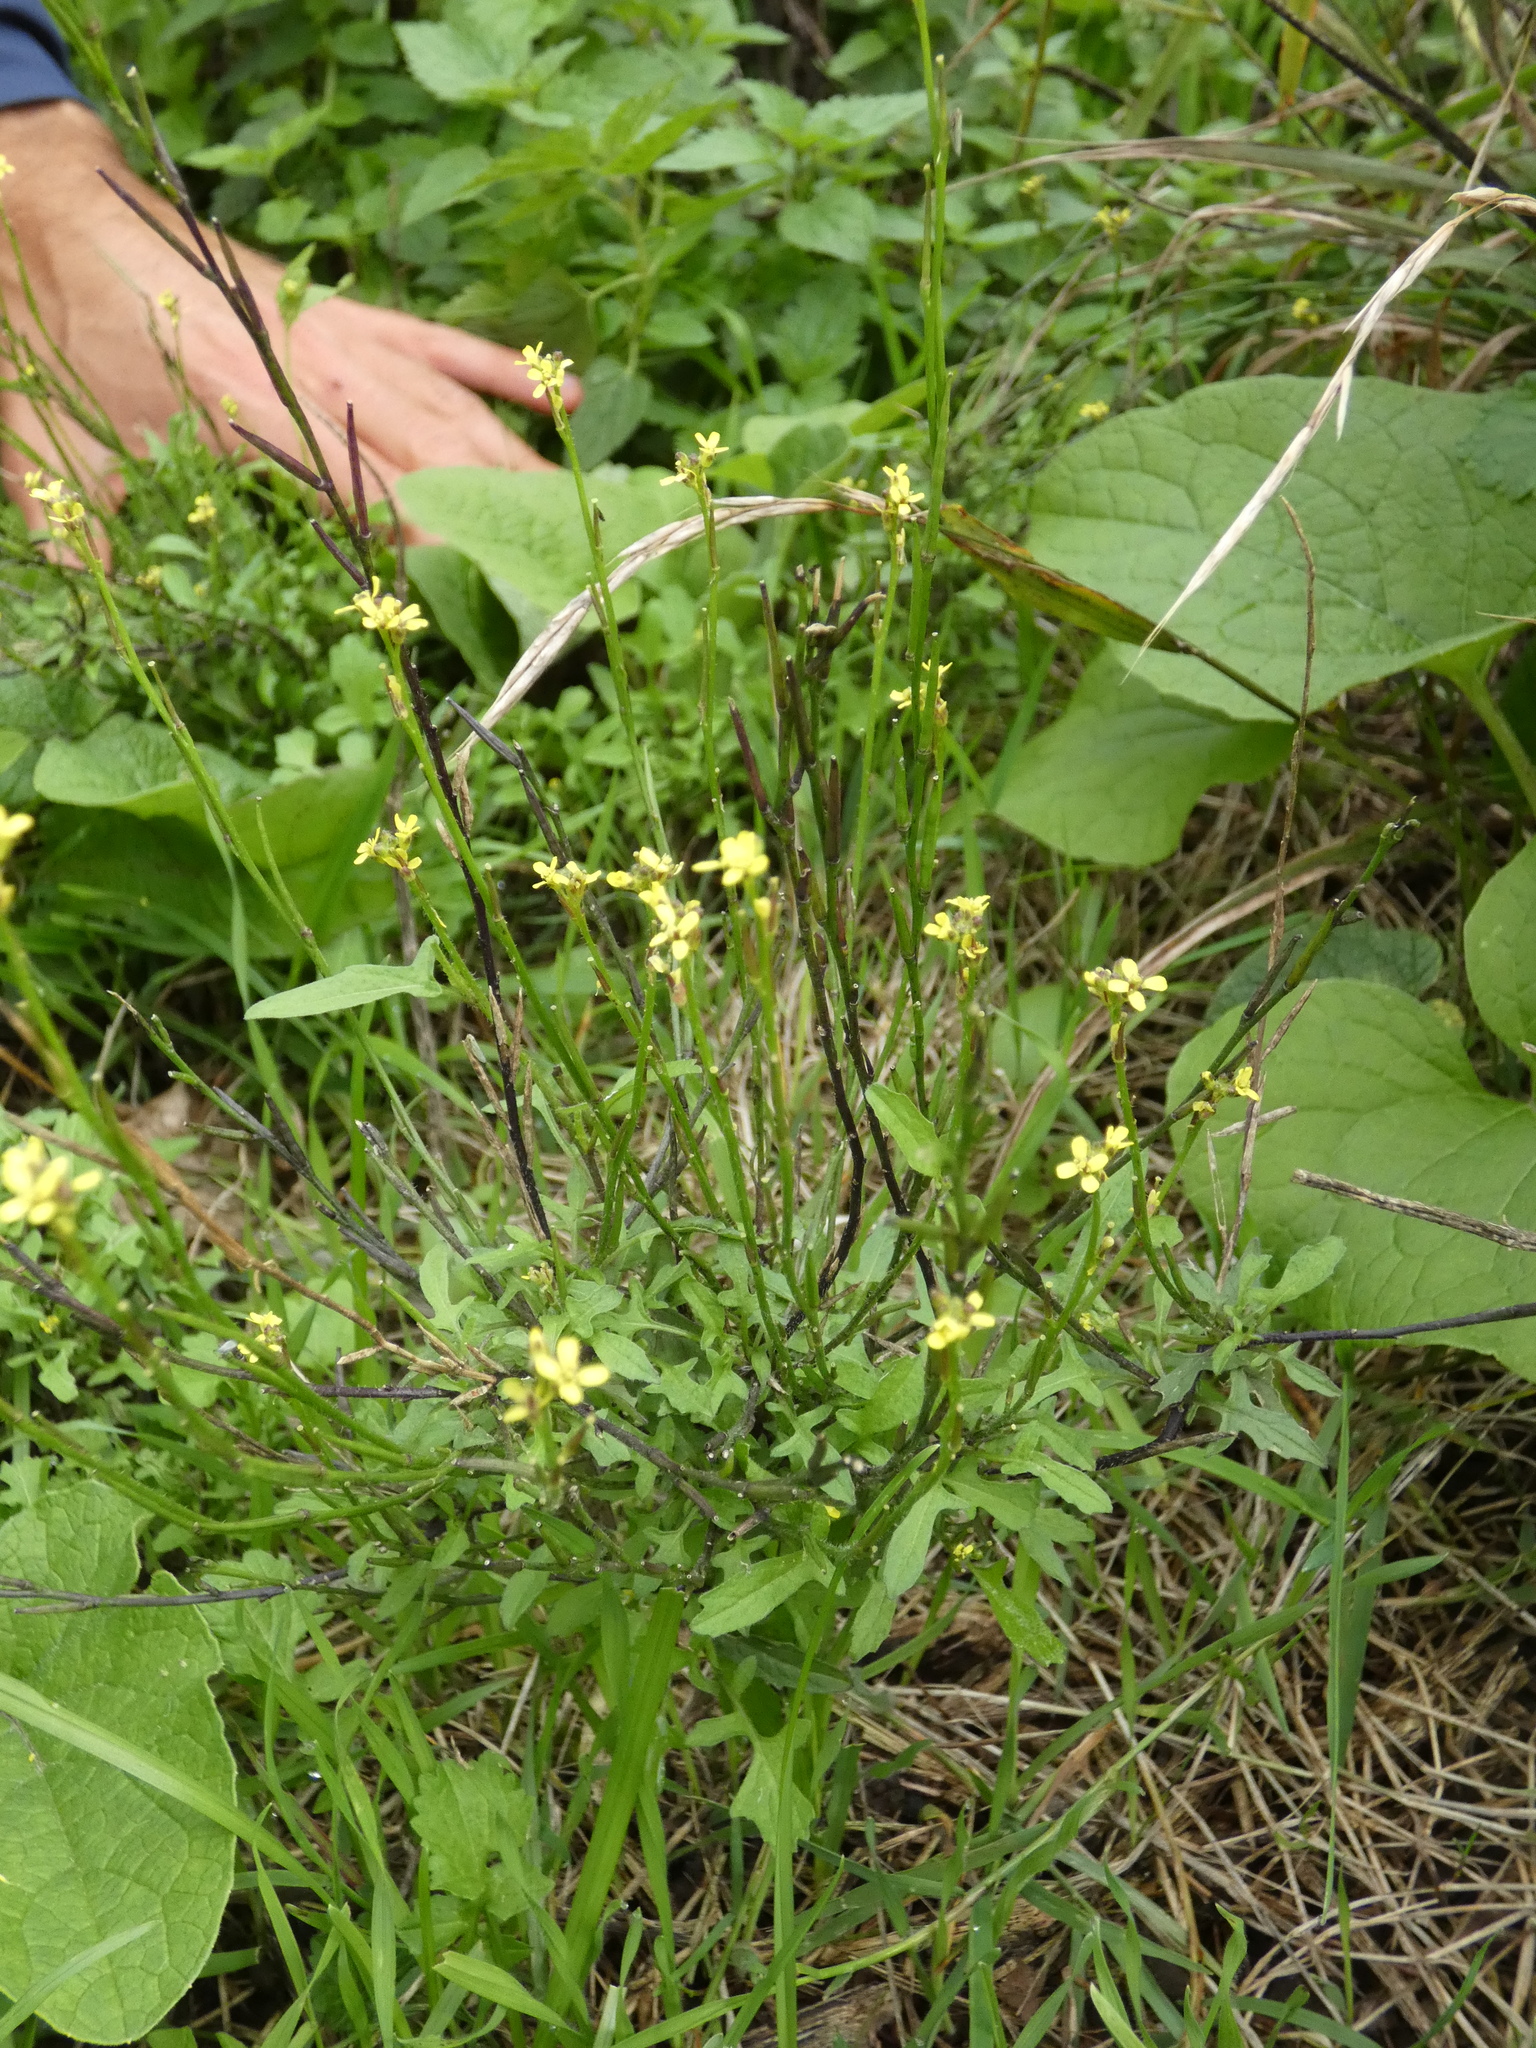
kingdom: Plantae
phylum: Tracheophyta
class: Magnoliopsida
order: Brassicales
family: Brassicaceae
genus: Sisymbrium
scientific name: Sisymbrium officinale
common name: Hedge mustard
